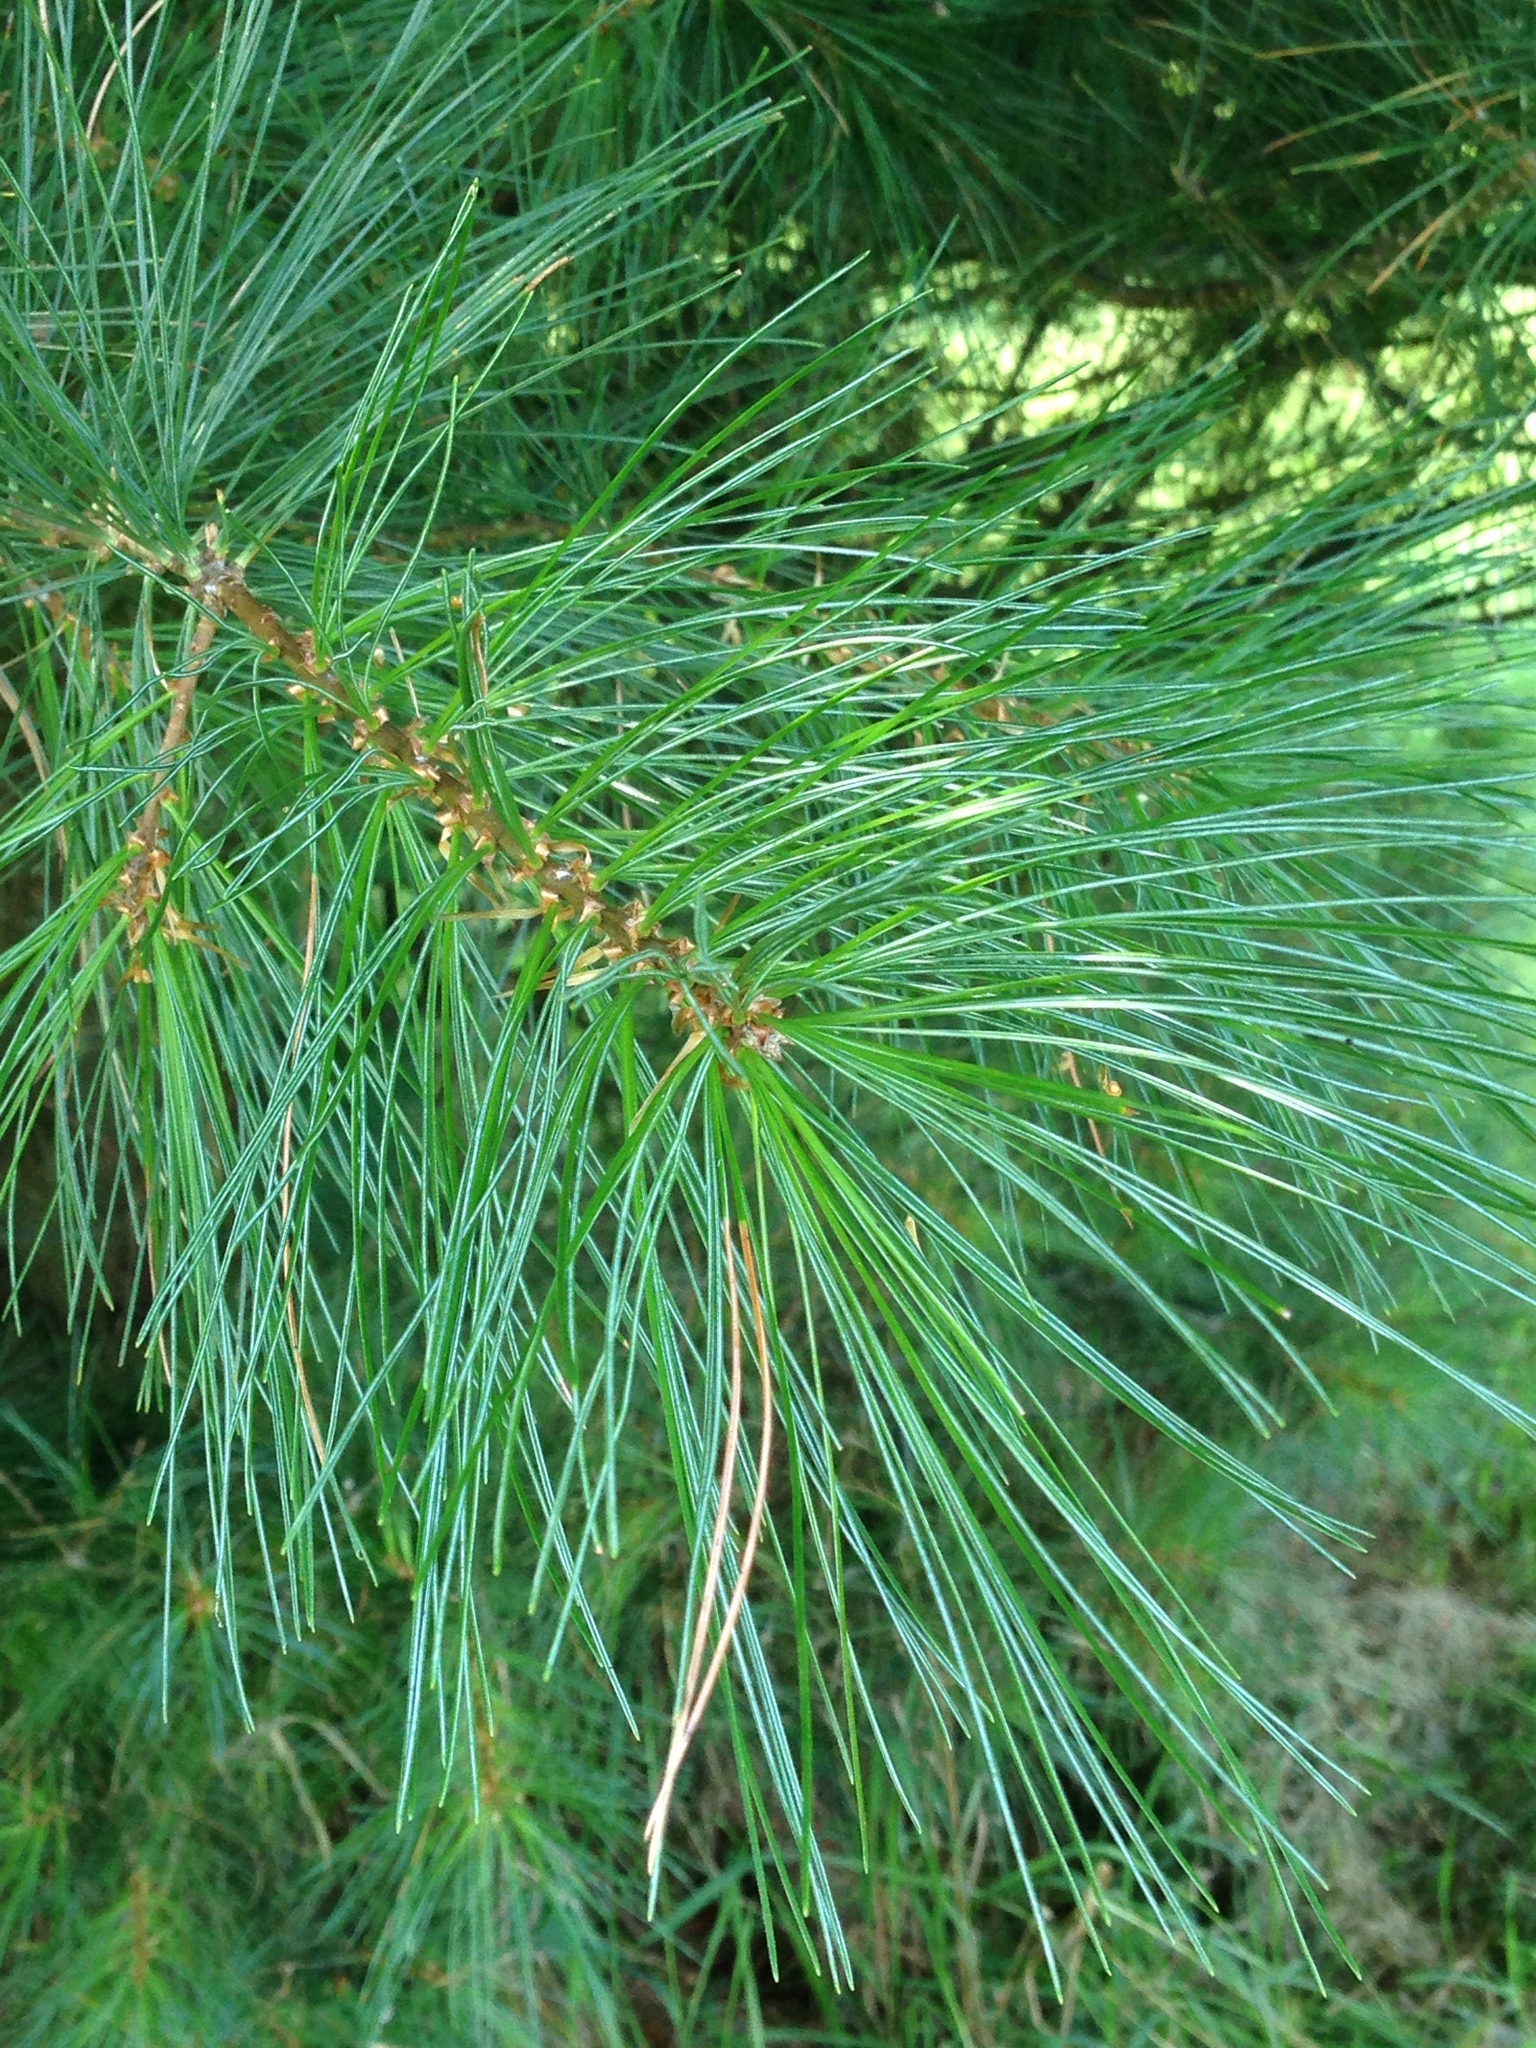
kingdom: Plantae
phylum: Tracheophyta
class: Pinopsida
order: Pinales
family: Pinaceae
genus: Pinus
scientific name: Pinus strobus
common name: Weymouth pine
